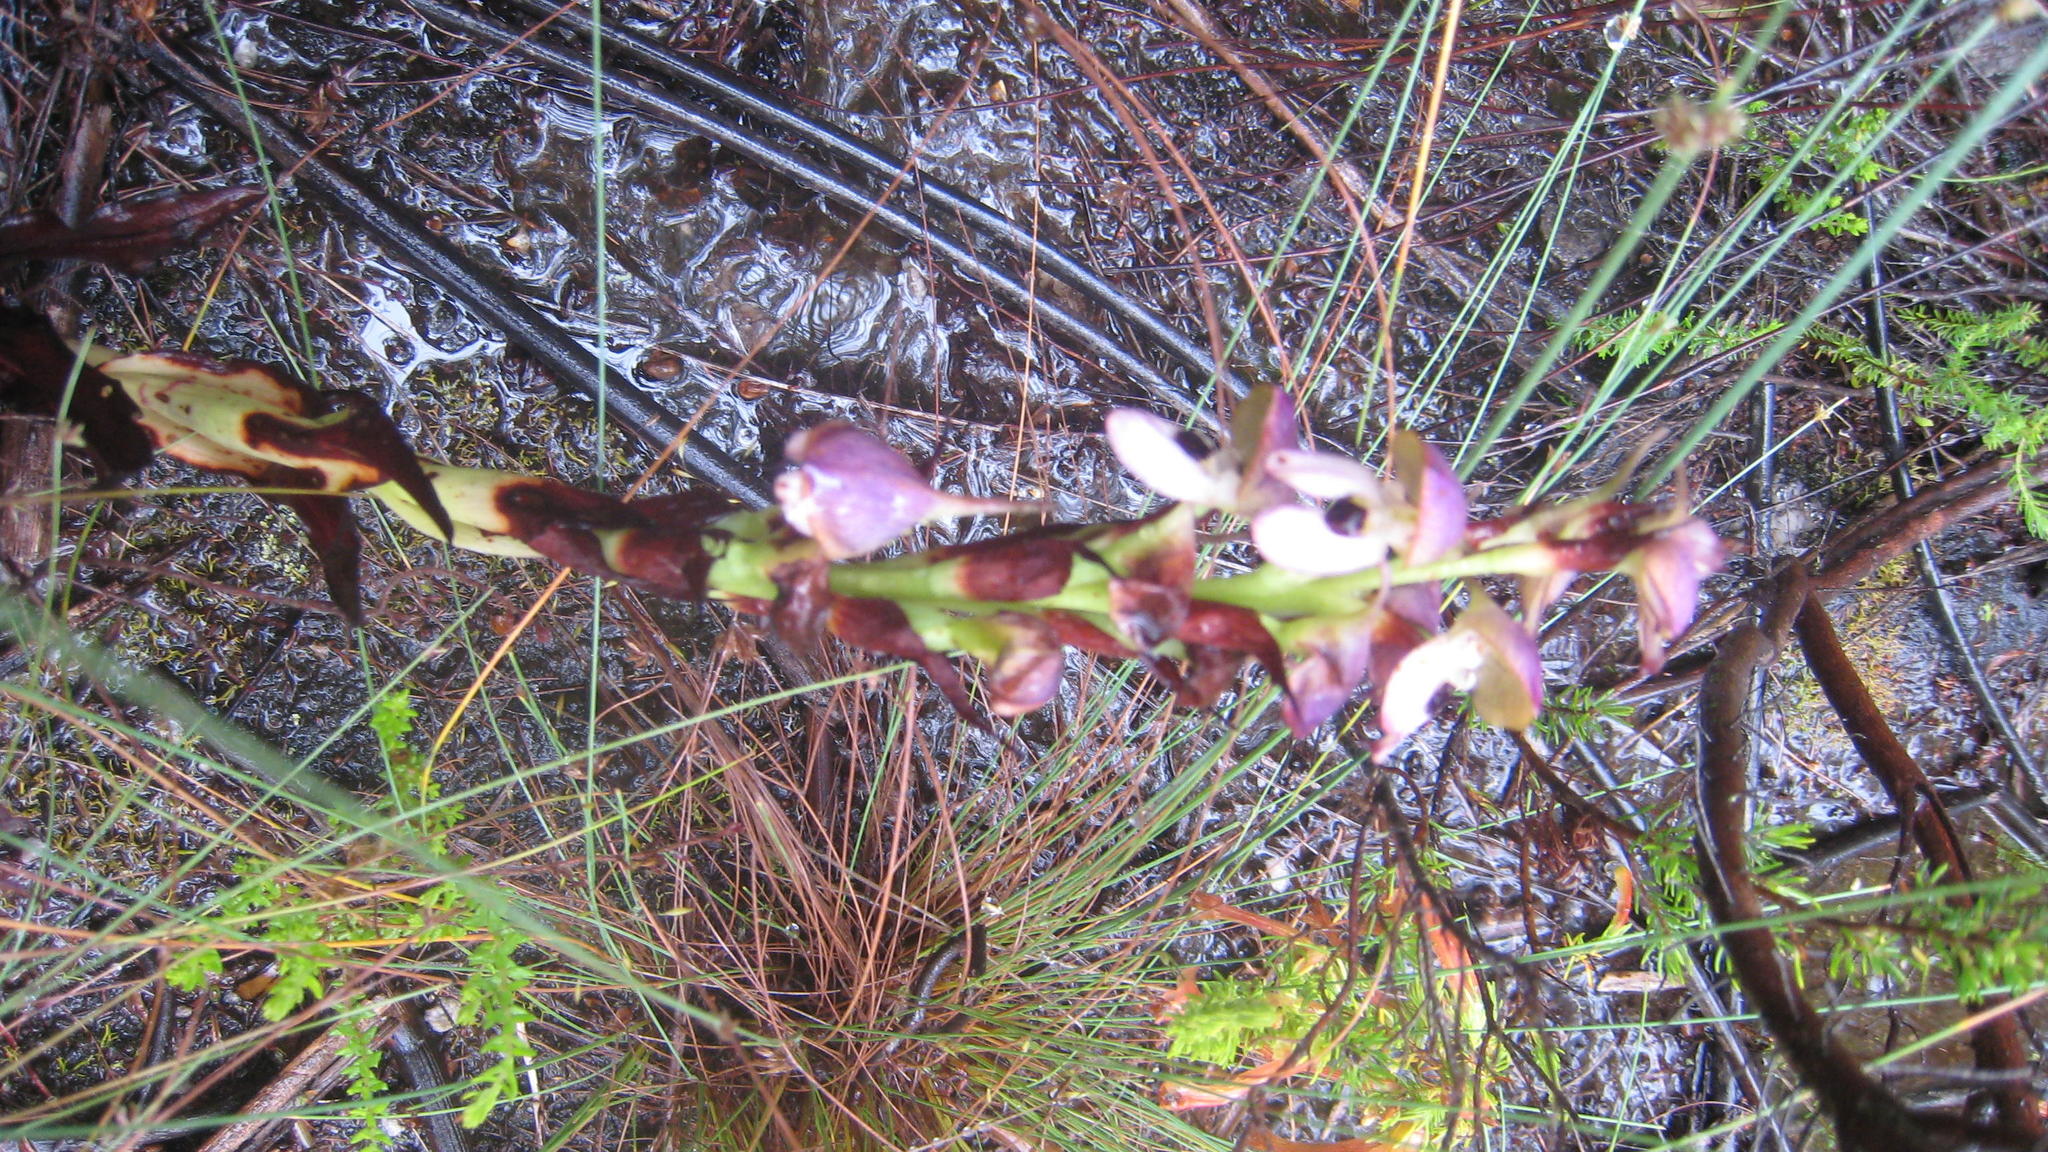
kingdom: Plantae
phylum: Tracheophyta
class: Liliopsida
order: Asparagales
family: Orchidaceae
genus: Disa
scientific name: Disa cornuta
